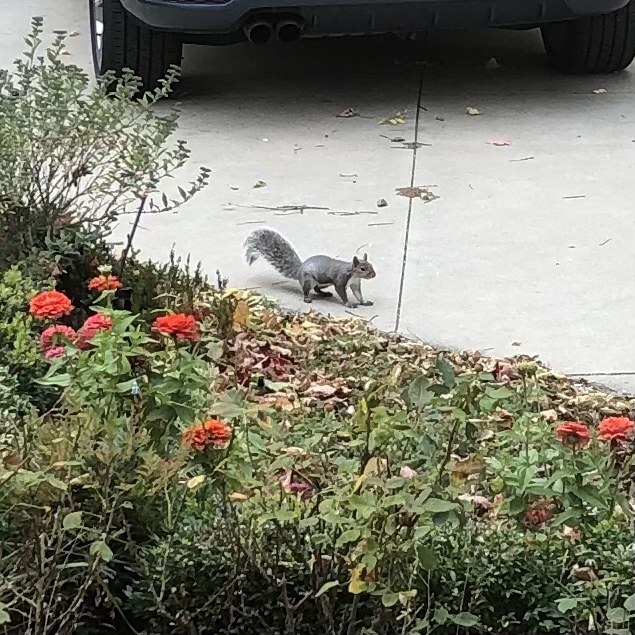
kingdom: Animalia
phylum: Chordata
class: Mammalia
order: Rodentia
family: Sciuridae
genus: Sciurus
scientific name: Sciurus carolinensis
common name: Eastern gray squirrel
